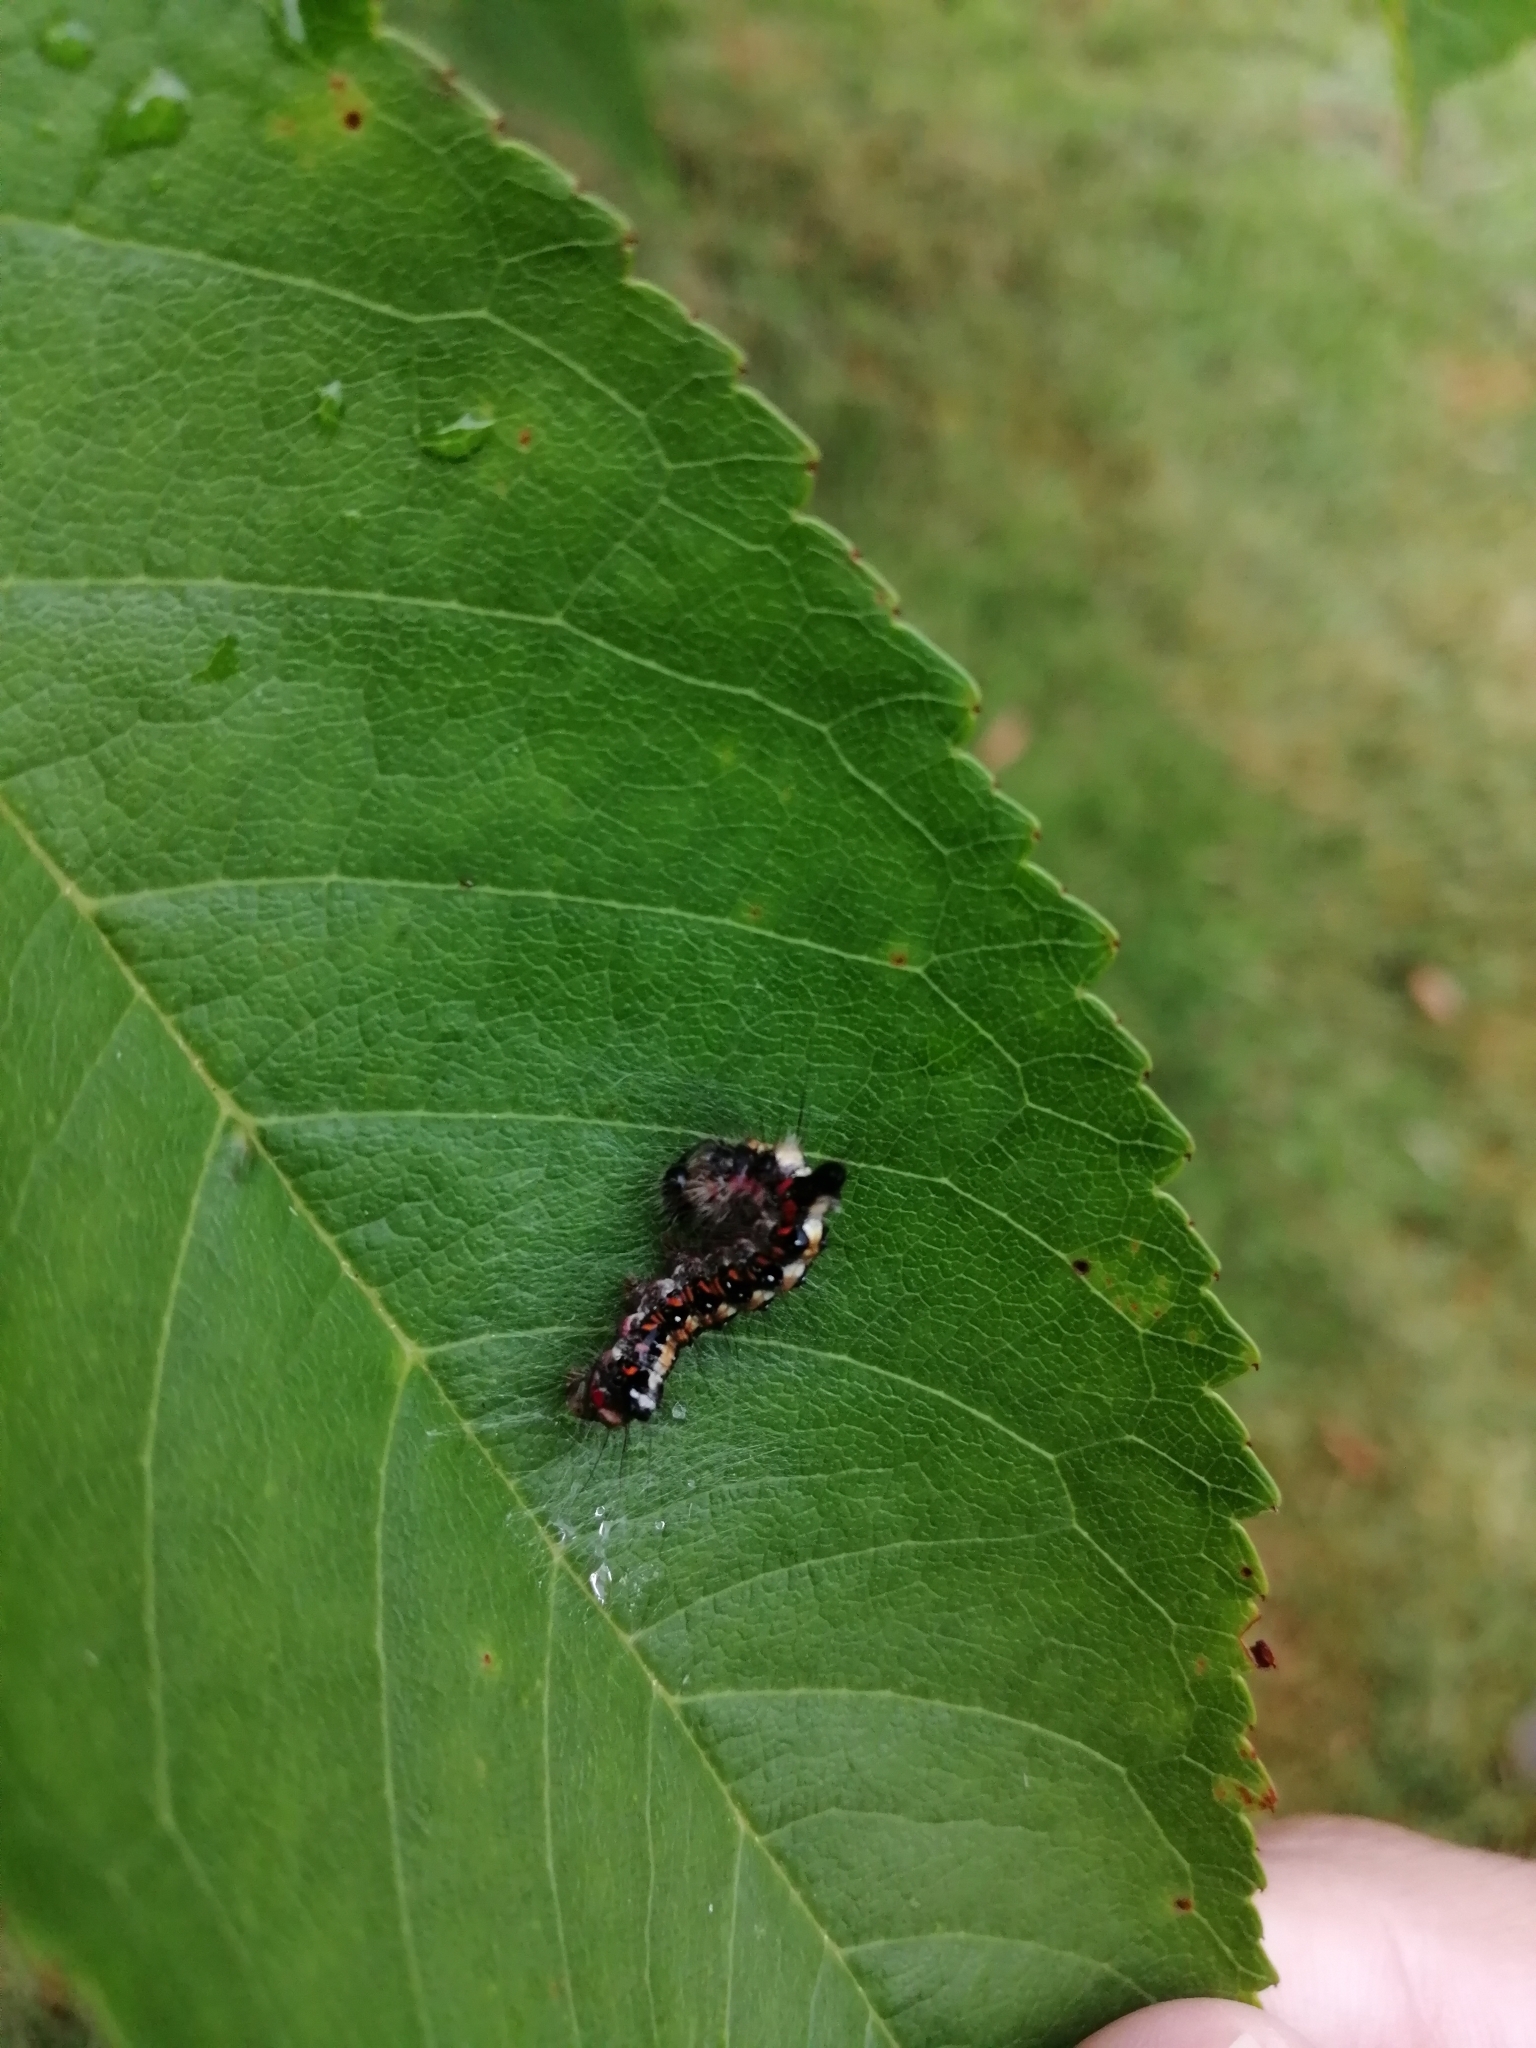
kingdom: Animalia
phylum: Arthropoda
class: Insecta
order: Lepidoptera
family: Noctuidae
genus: Acronicta
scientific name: Acronicta tridens
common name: Dark dagger
